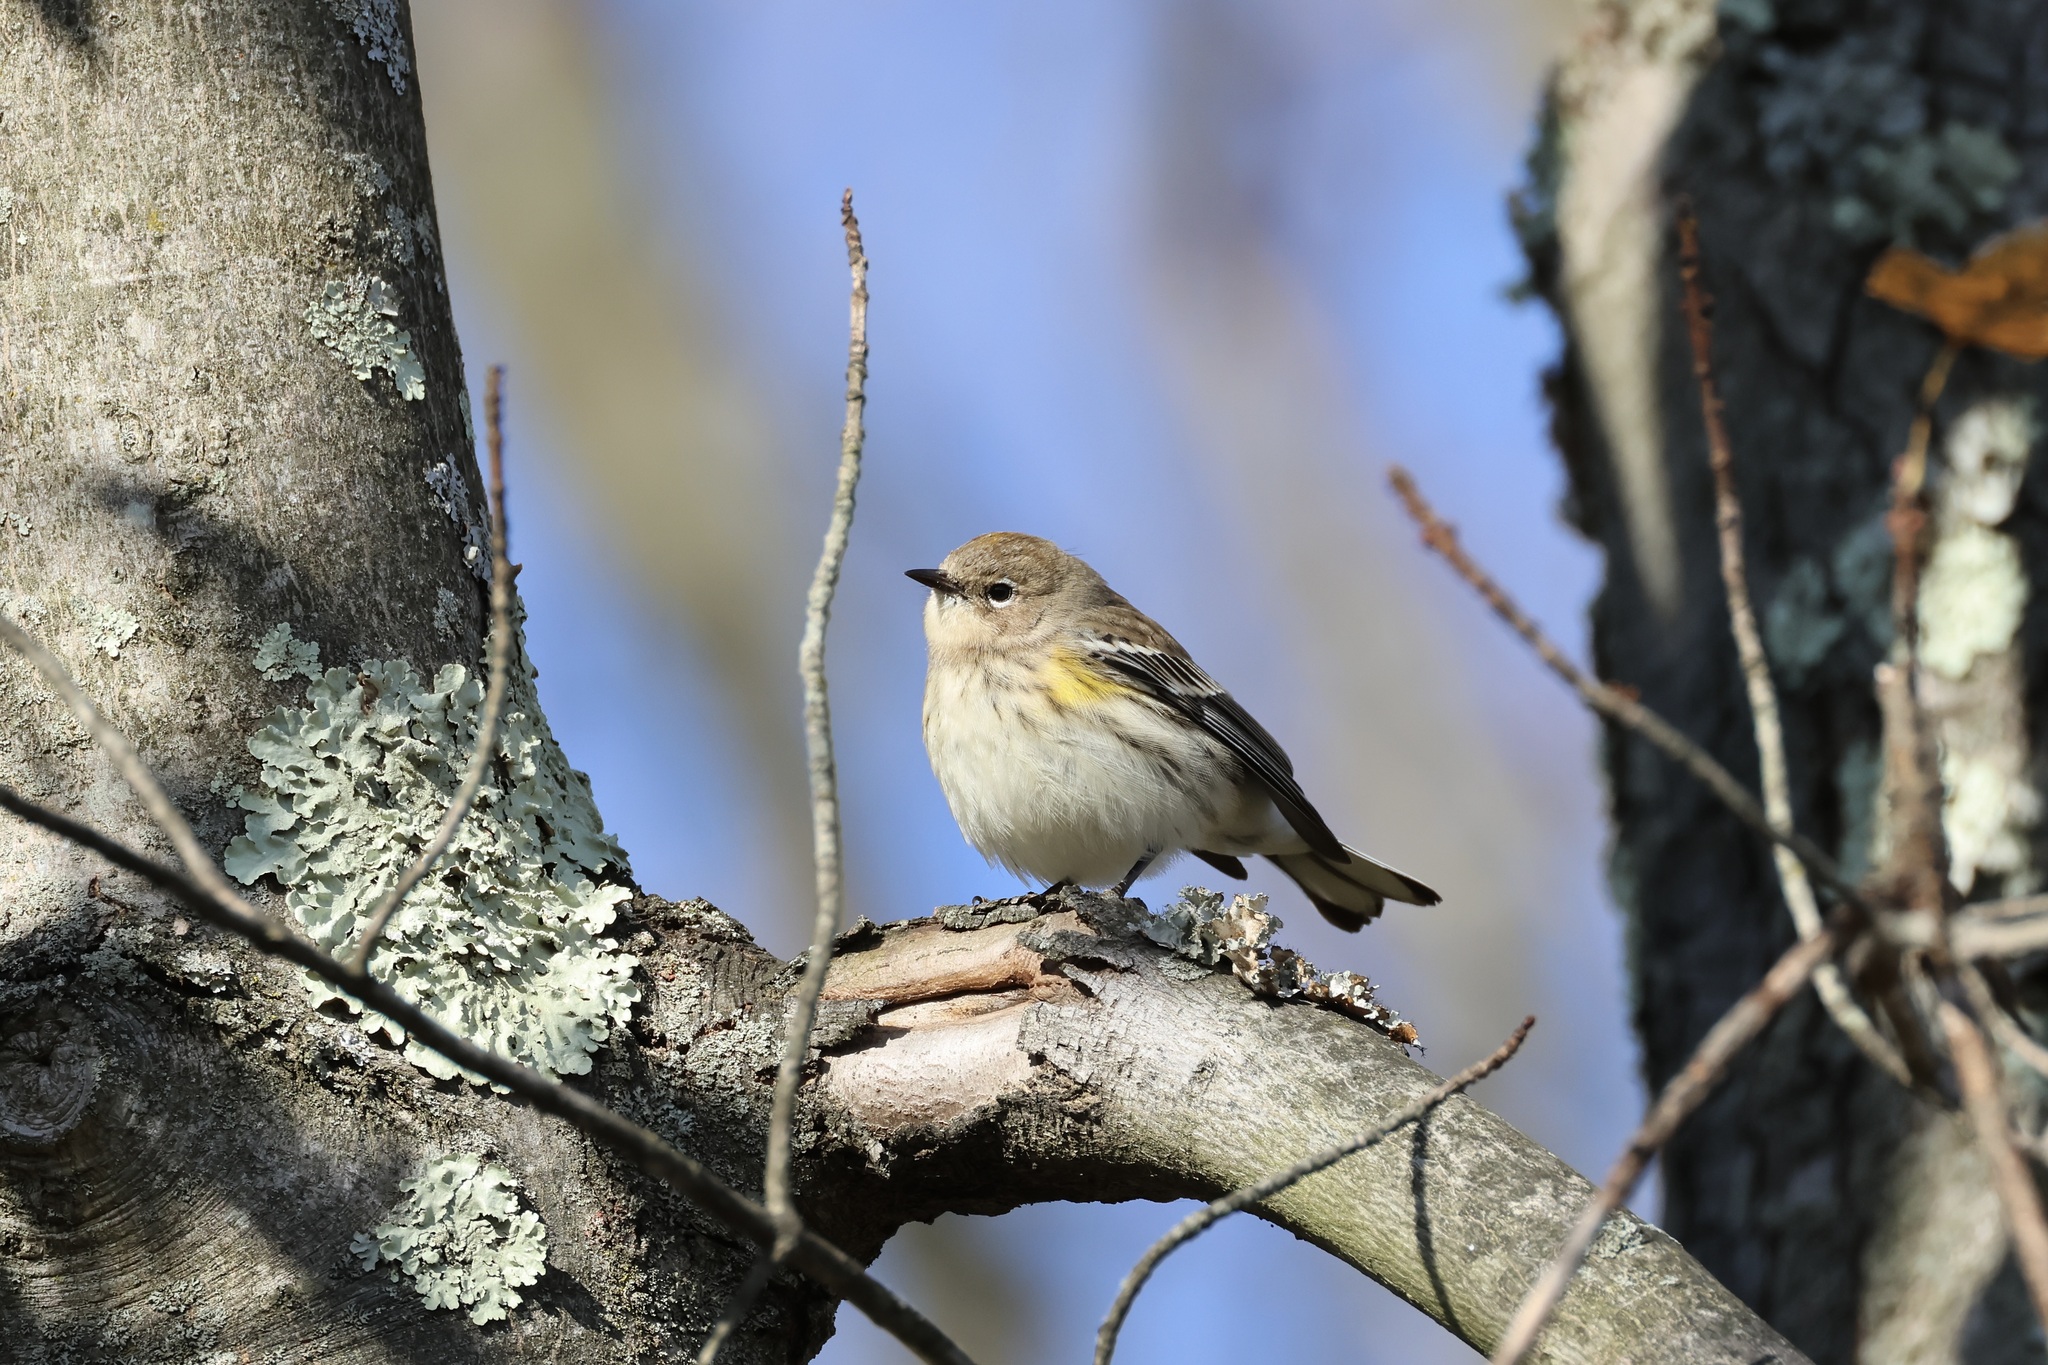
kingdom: Animalia
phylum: Chordata
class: Aves
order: Passeriformes
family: Parulidae
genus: Setophaga
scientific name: Setophaga coronata
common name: Myrtle warbler
